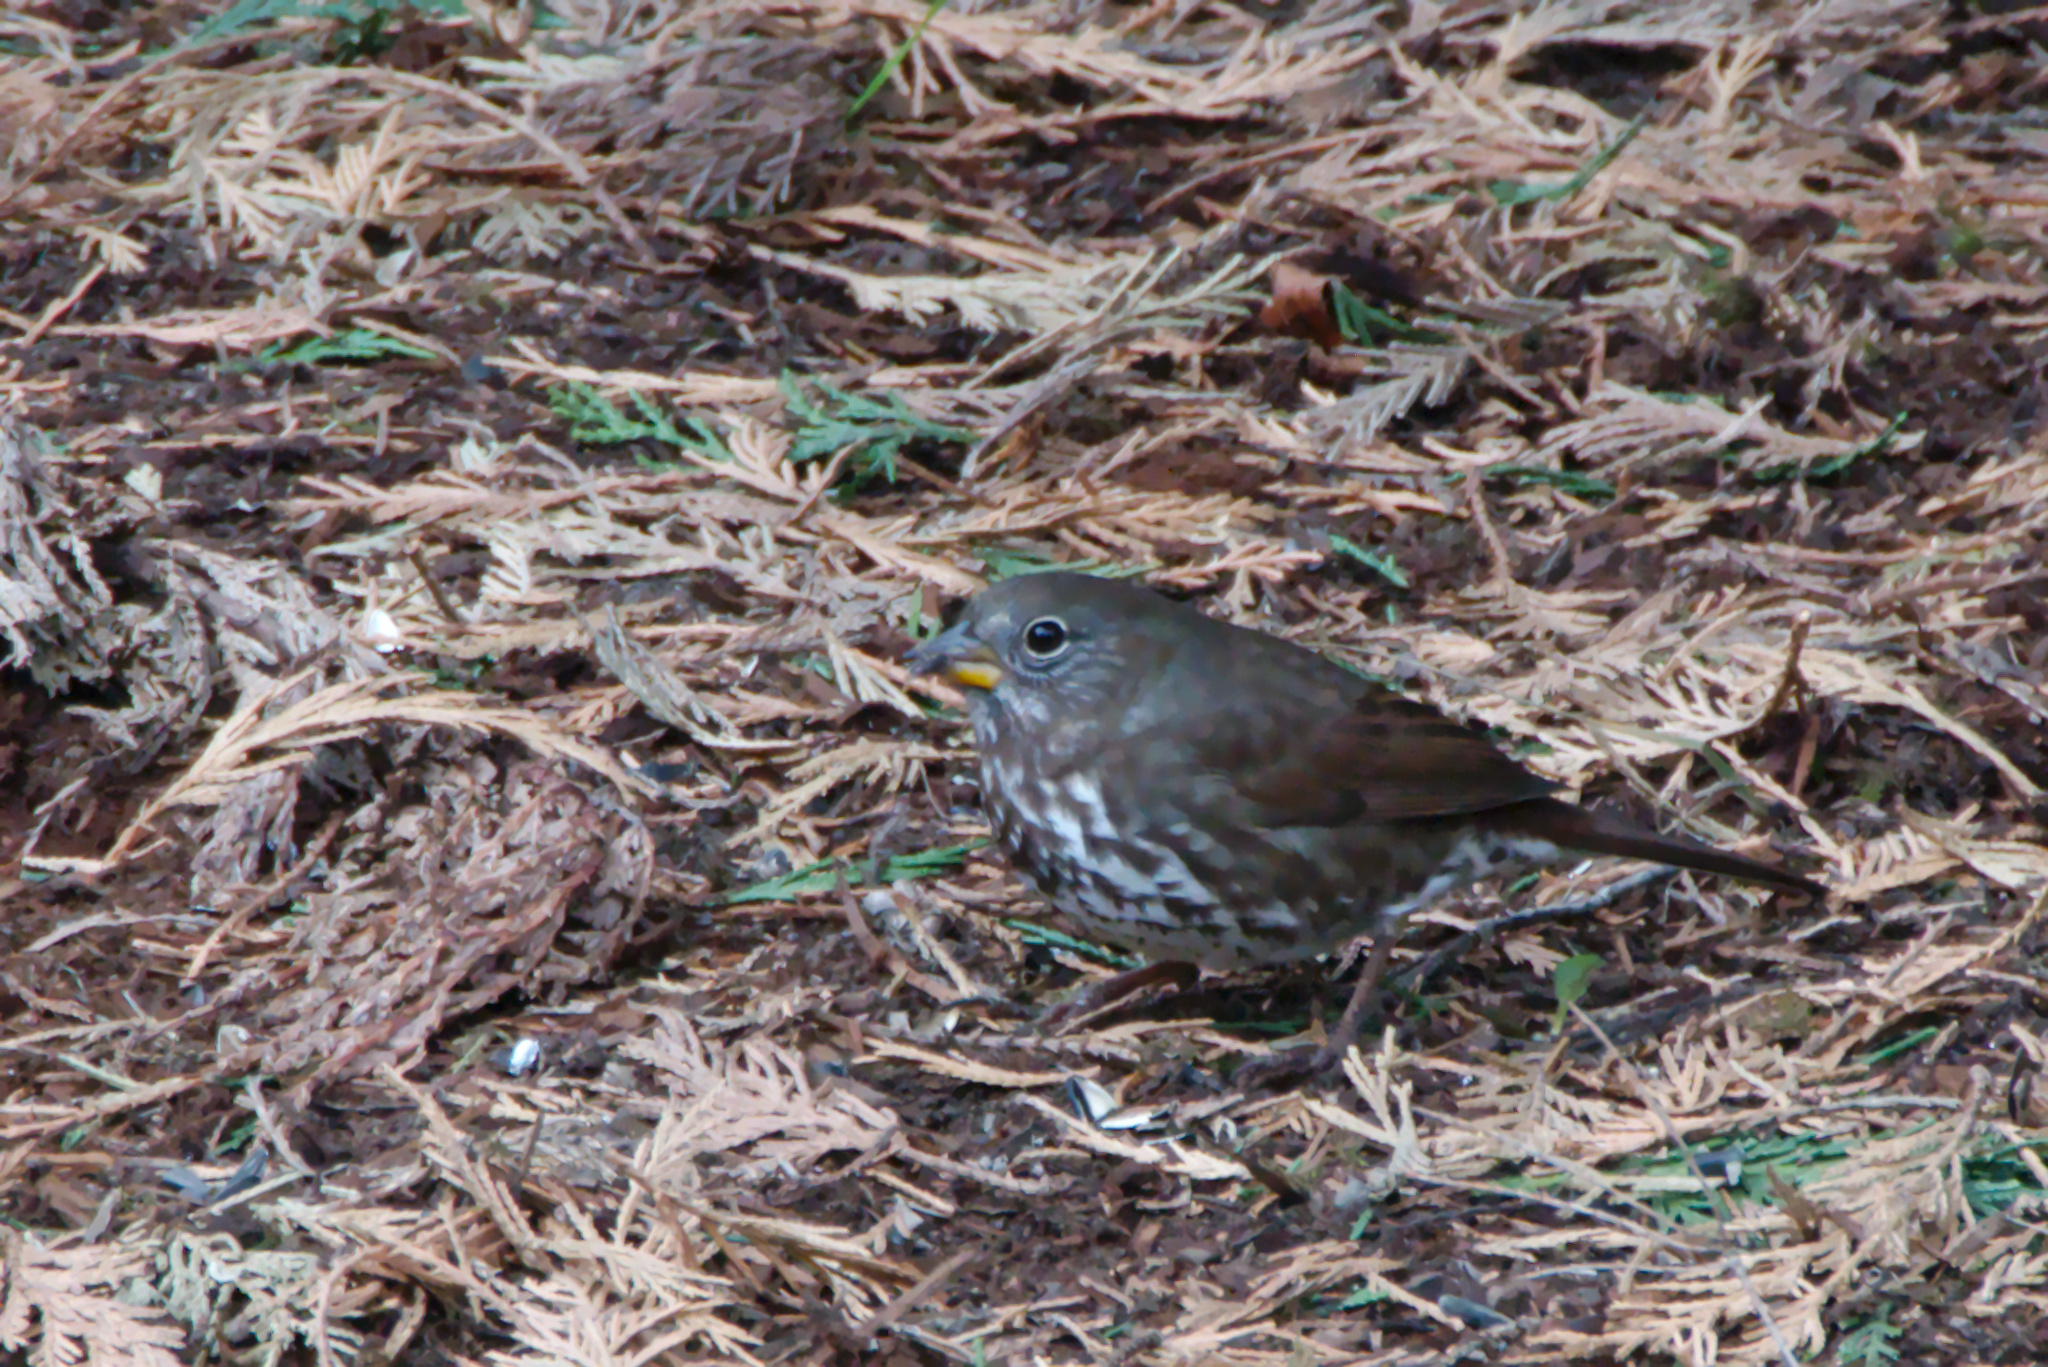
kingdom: Animalia
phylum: Chordata
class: Aves
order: Passeriformes
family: Passerellidae
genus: Passerella
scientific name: Passerella iliaca
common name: Fox sparrow
